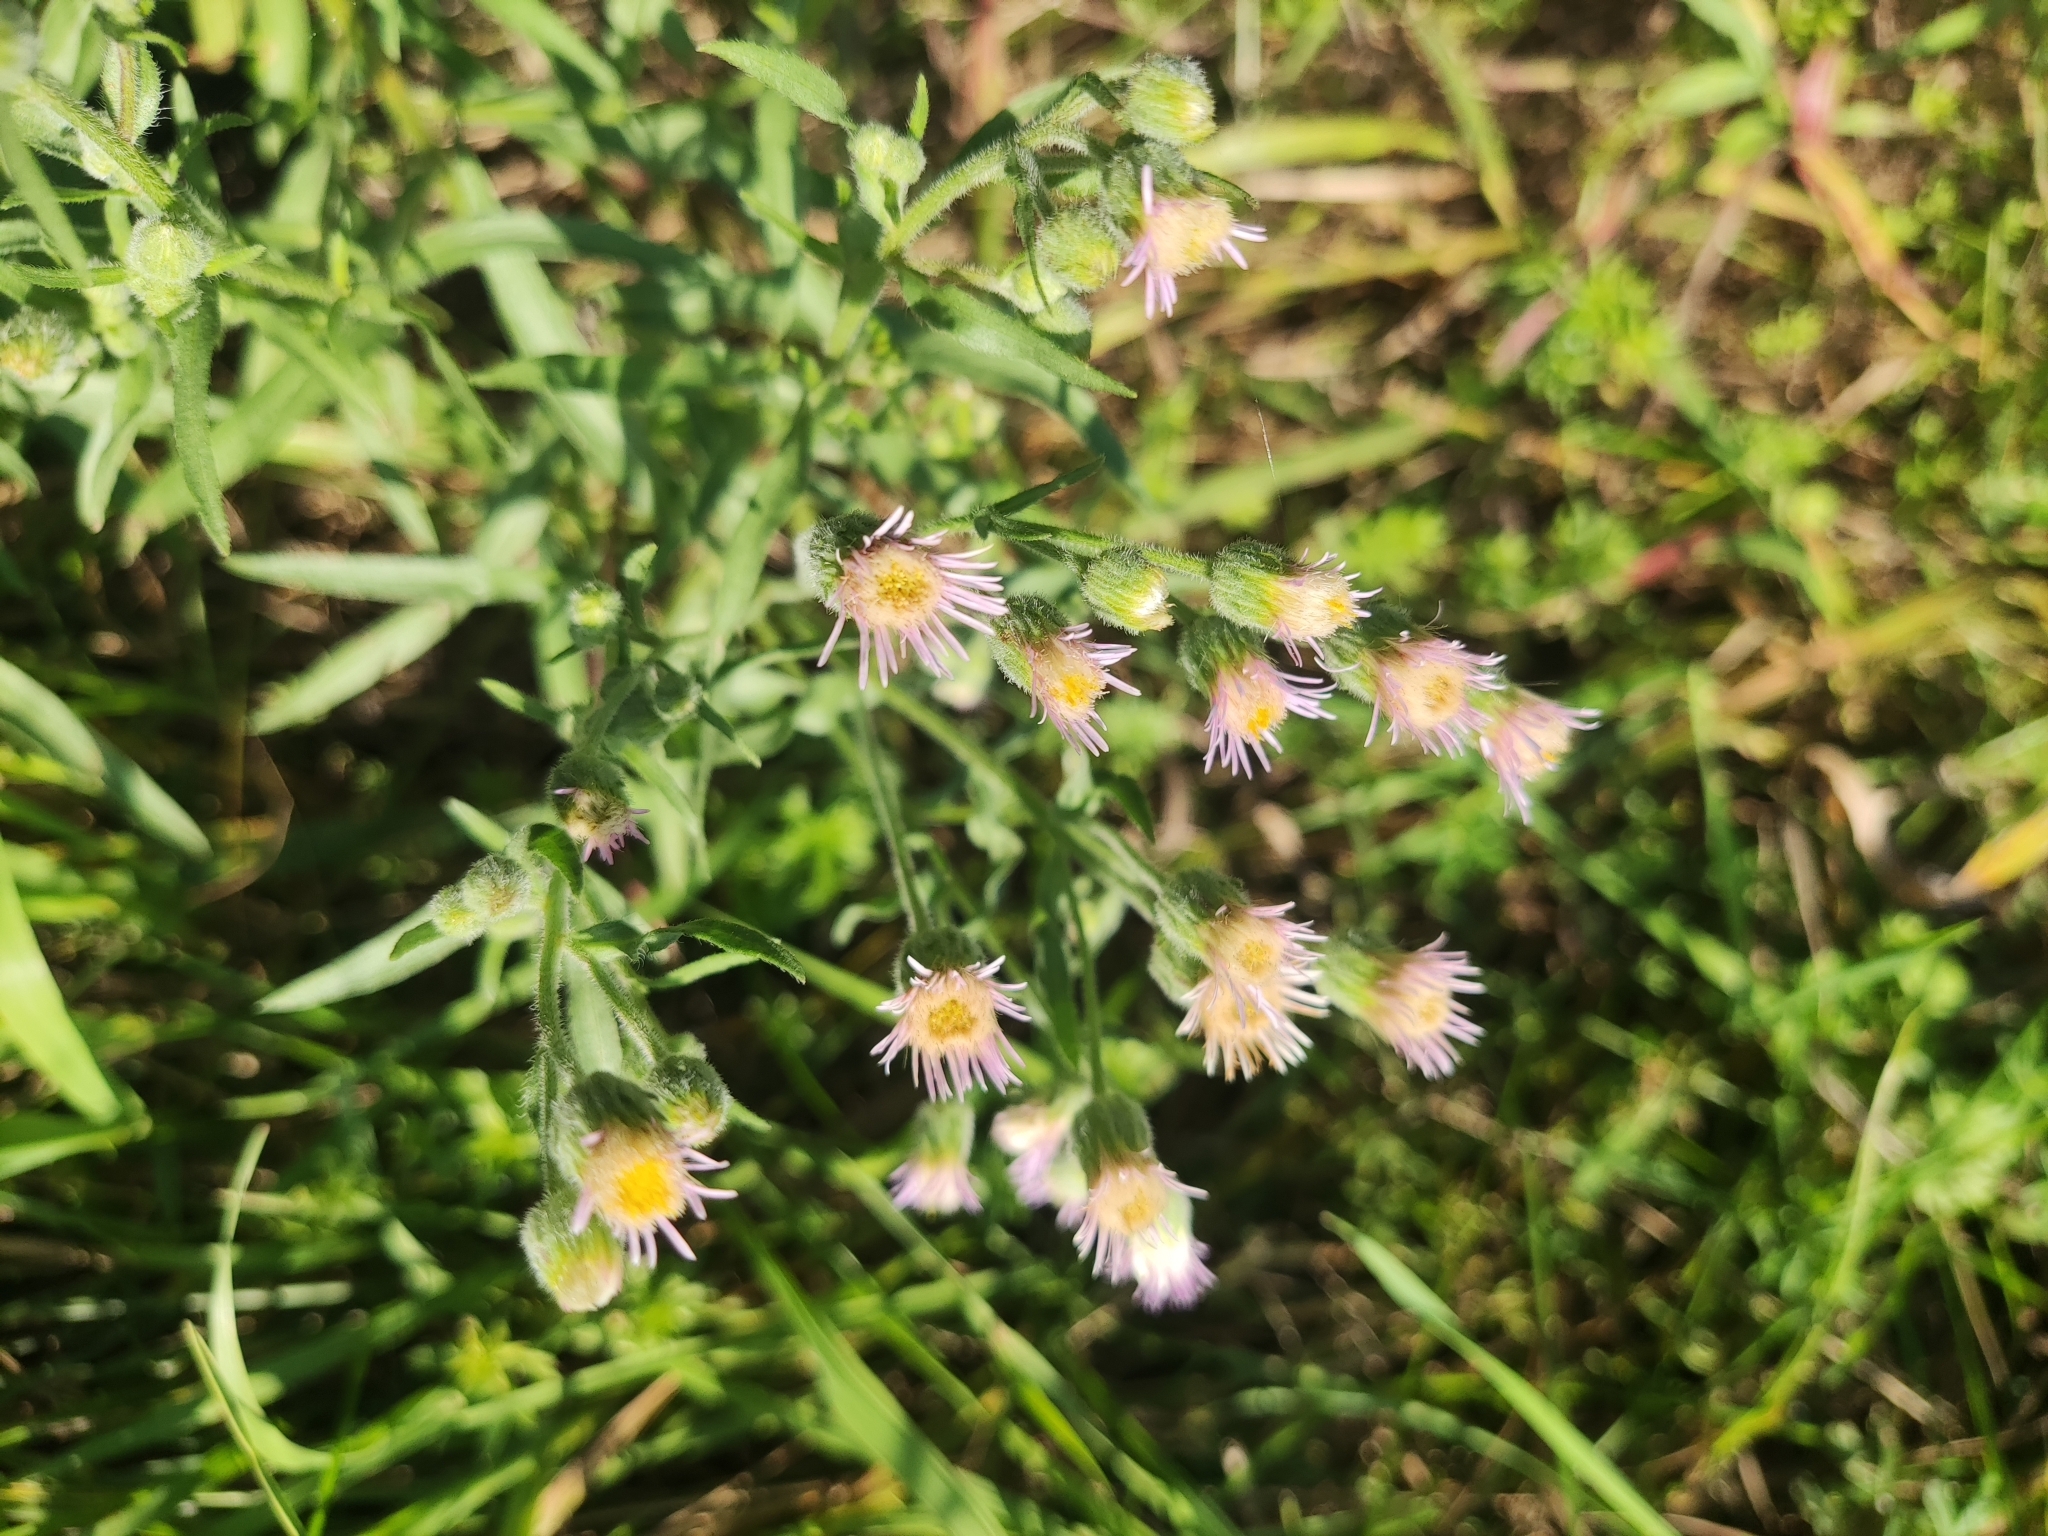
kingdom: Plantae
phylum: Tracheophyta
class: Magnoliopsida
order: Asterales
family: Asteraceae
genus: Erigeron
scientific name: Erigeron acris
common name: Blue fleabane
